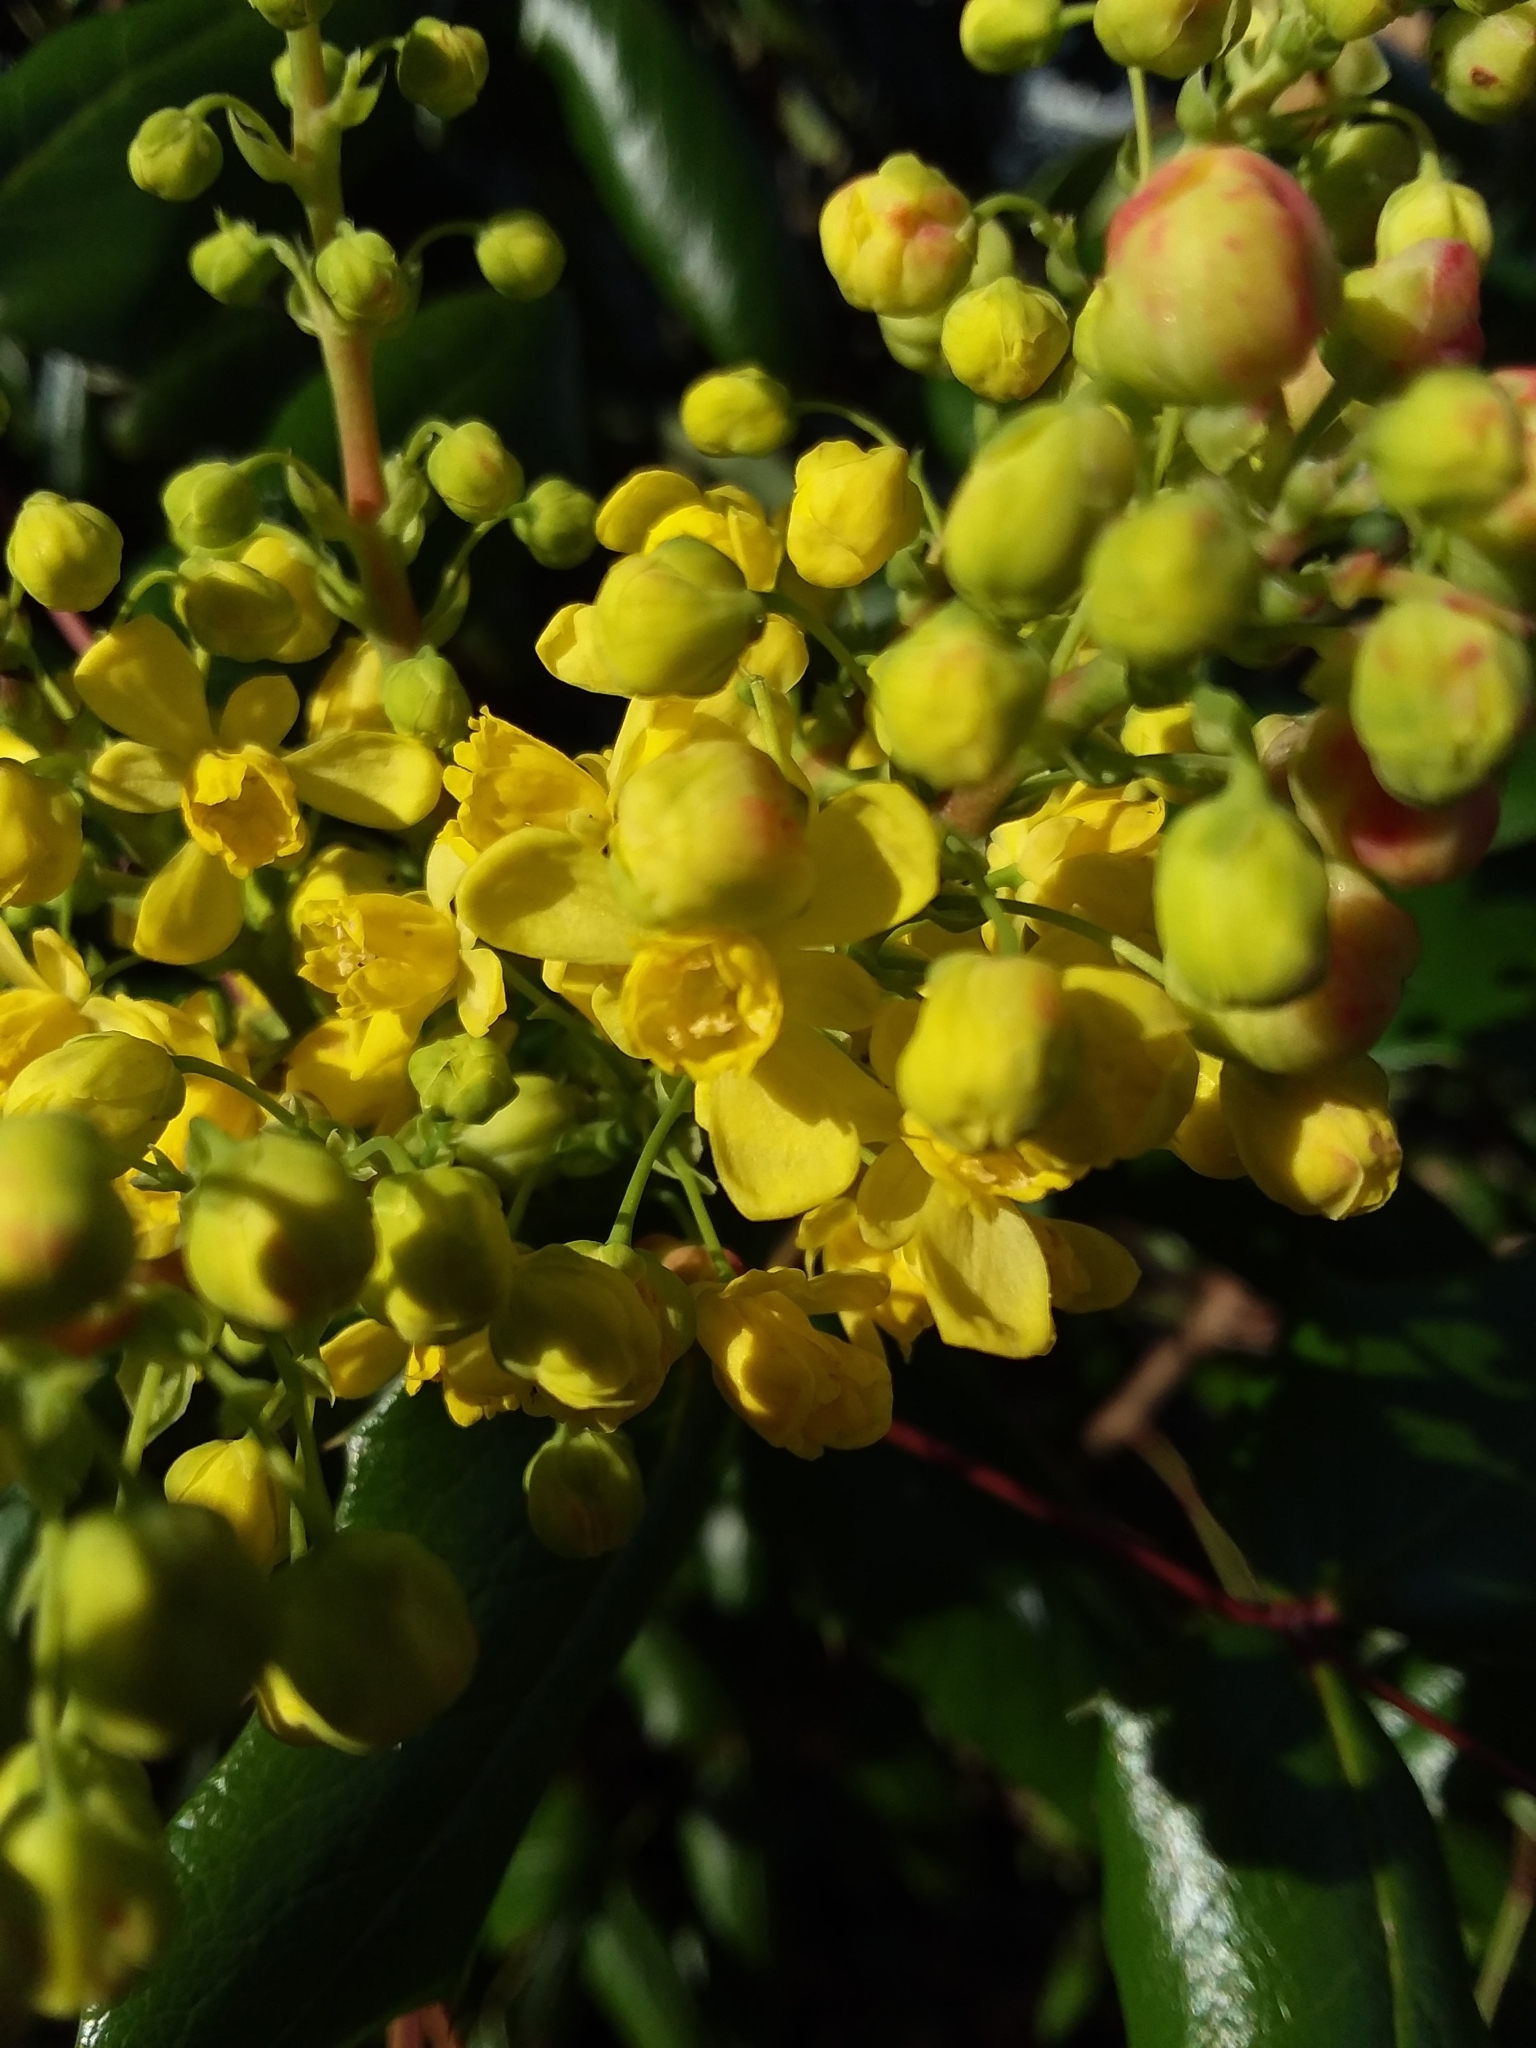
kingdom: Plantae
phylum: Tracheophyta
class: Magnoliopsida
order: Ranunculales
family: Berberidaceae
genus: Mahonia
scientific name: Mahonia aquifolium
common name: Oregon-grape
